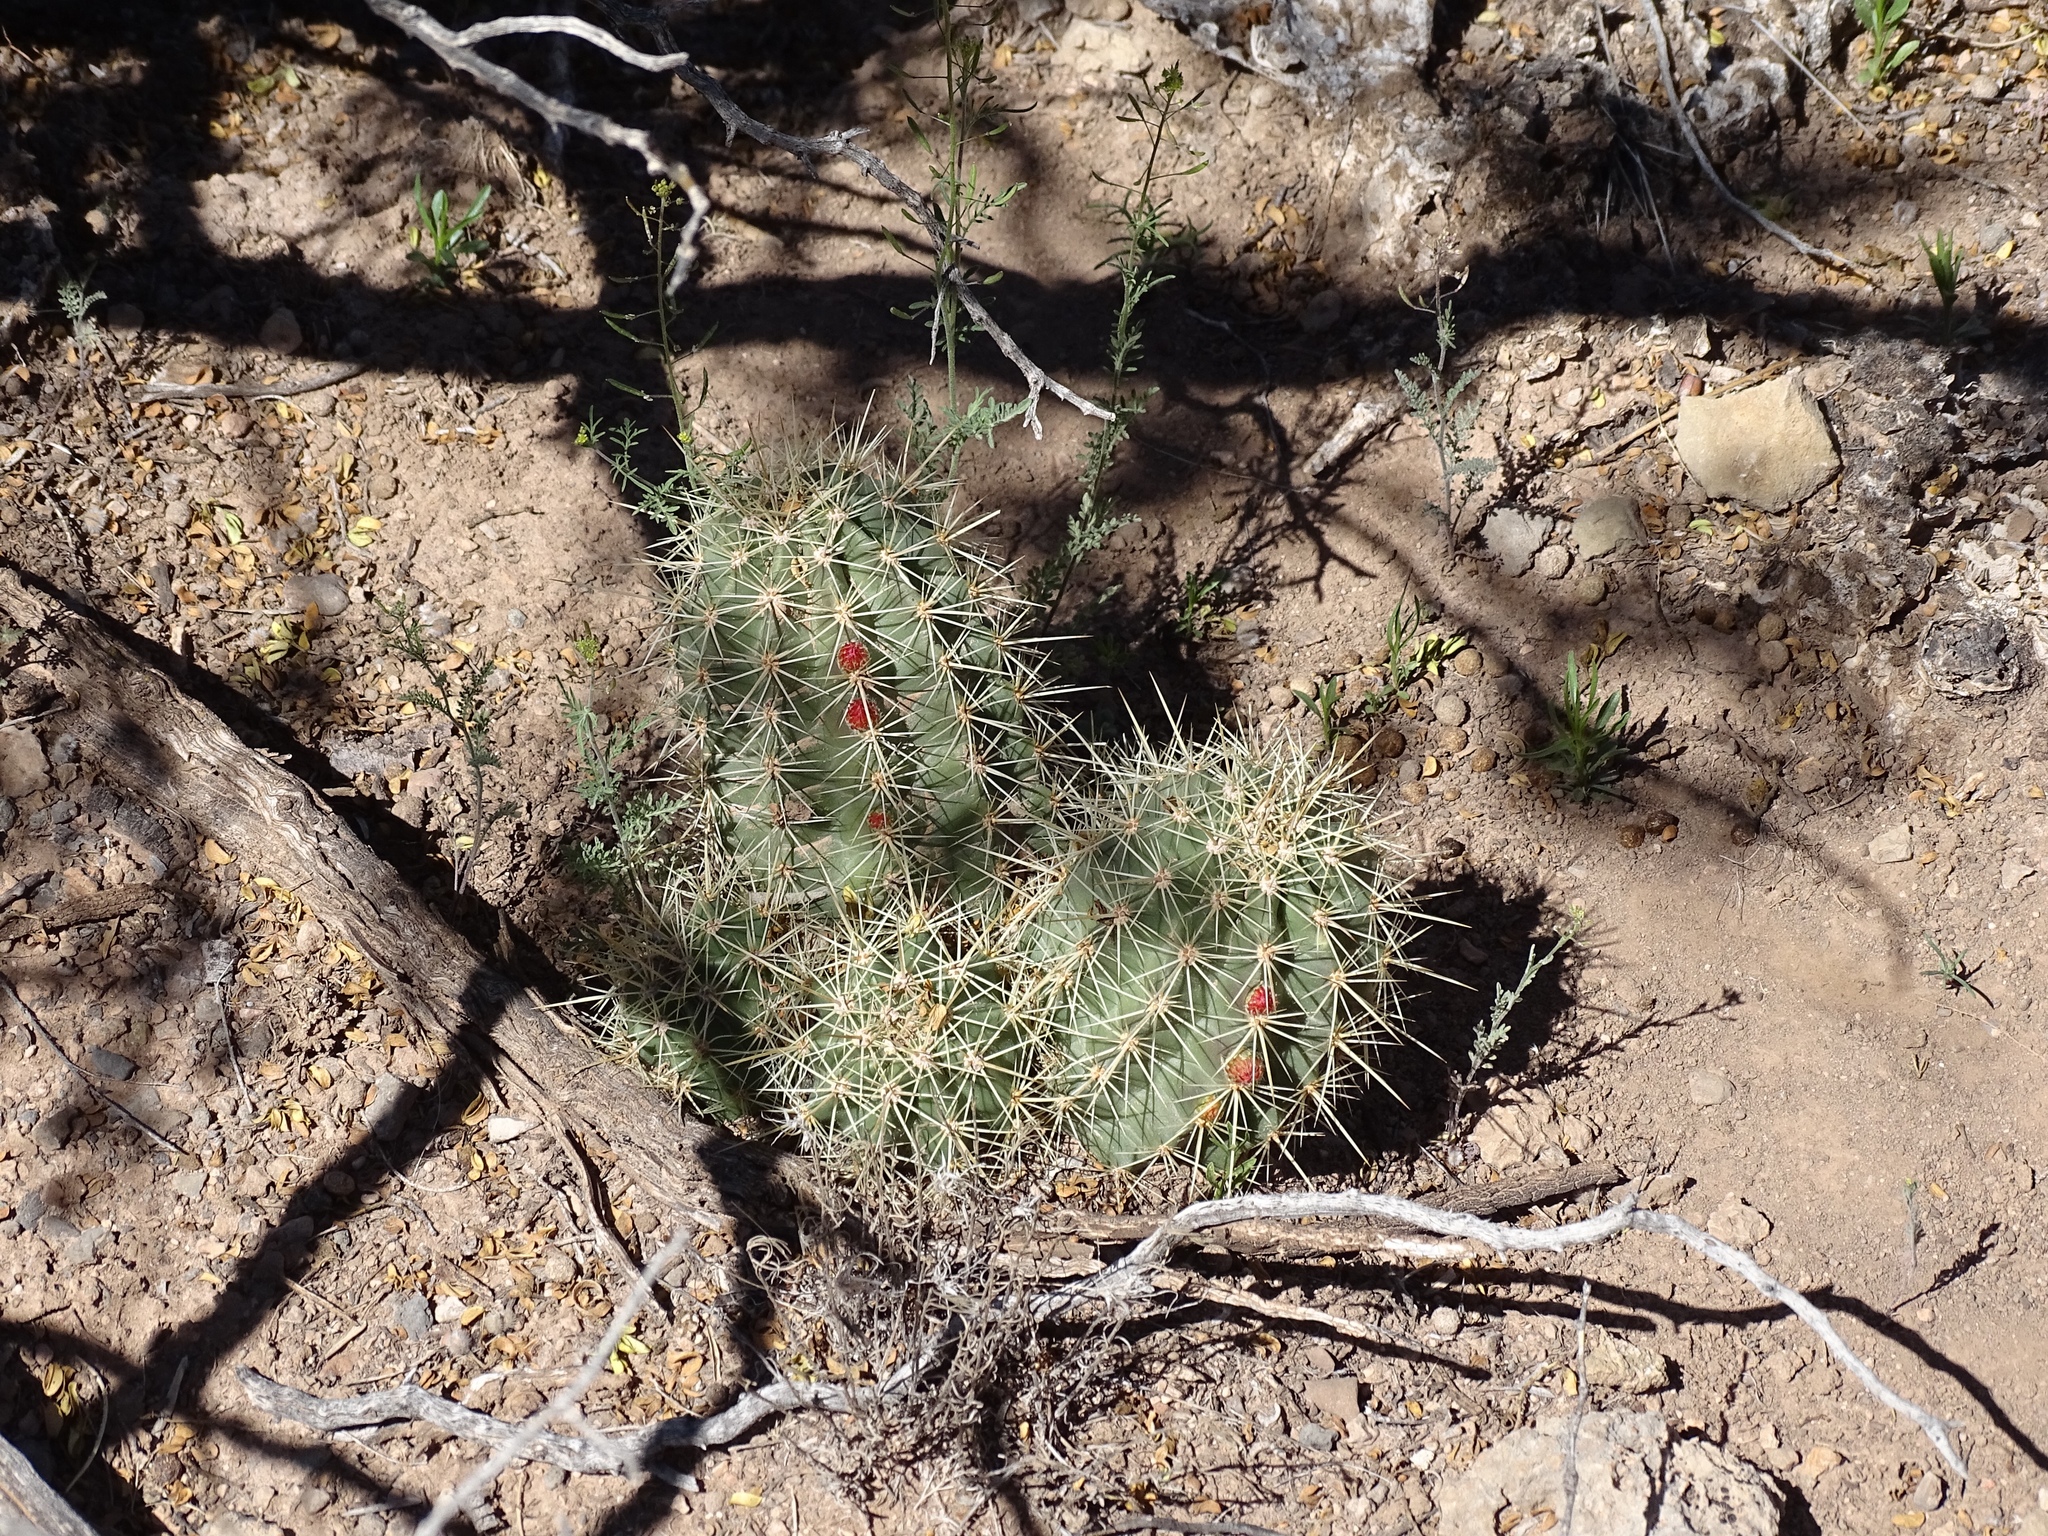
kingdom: Plantae
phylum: Tracheophyta
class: Magnoliopsida
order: Caryophyllales
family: Cactaceae
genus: Echinocereus
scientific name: Echinocereus coccineus
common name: Scarlet hedgehog cactus
